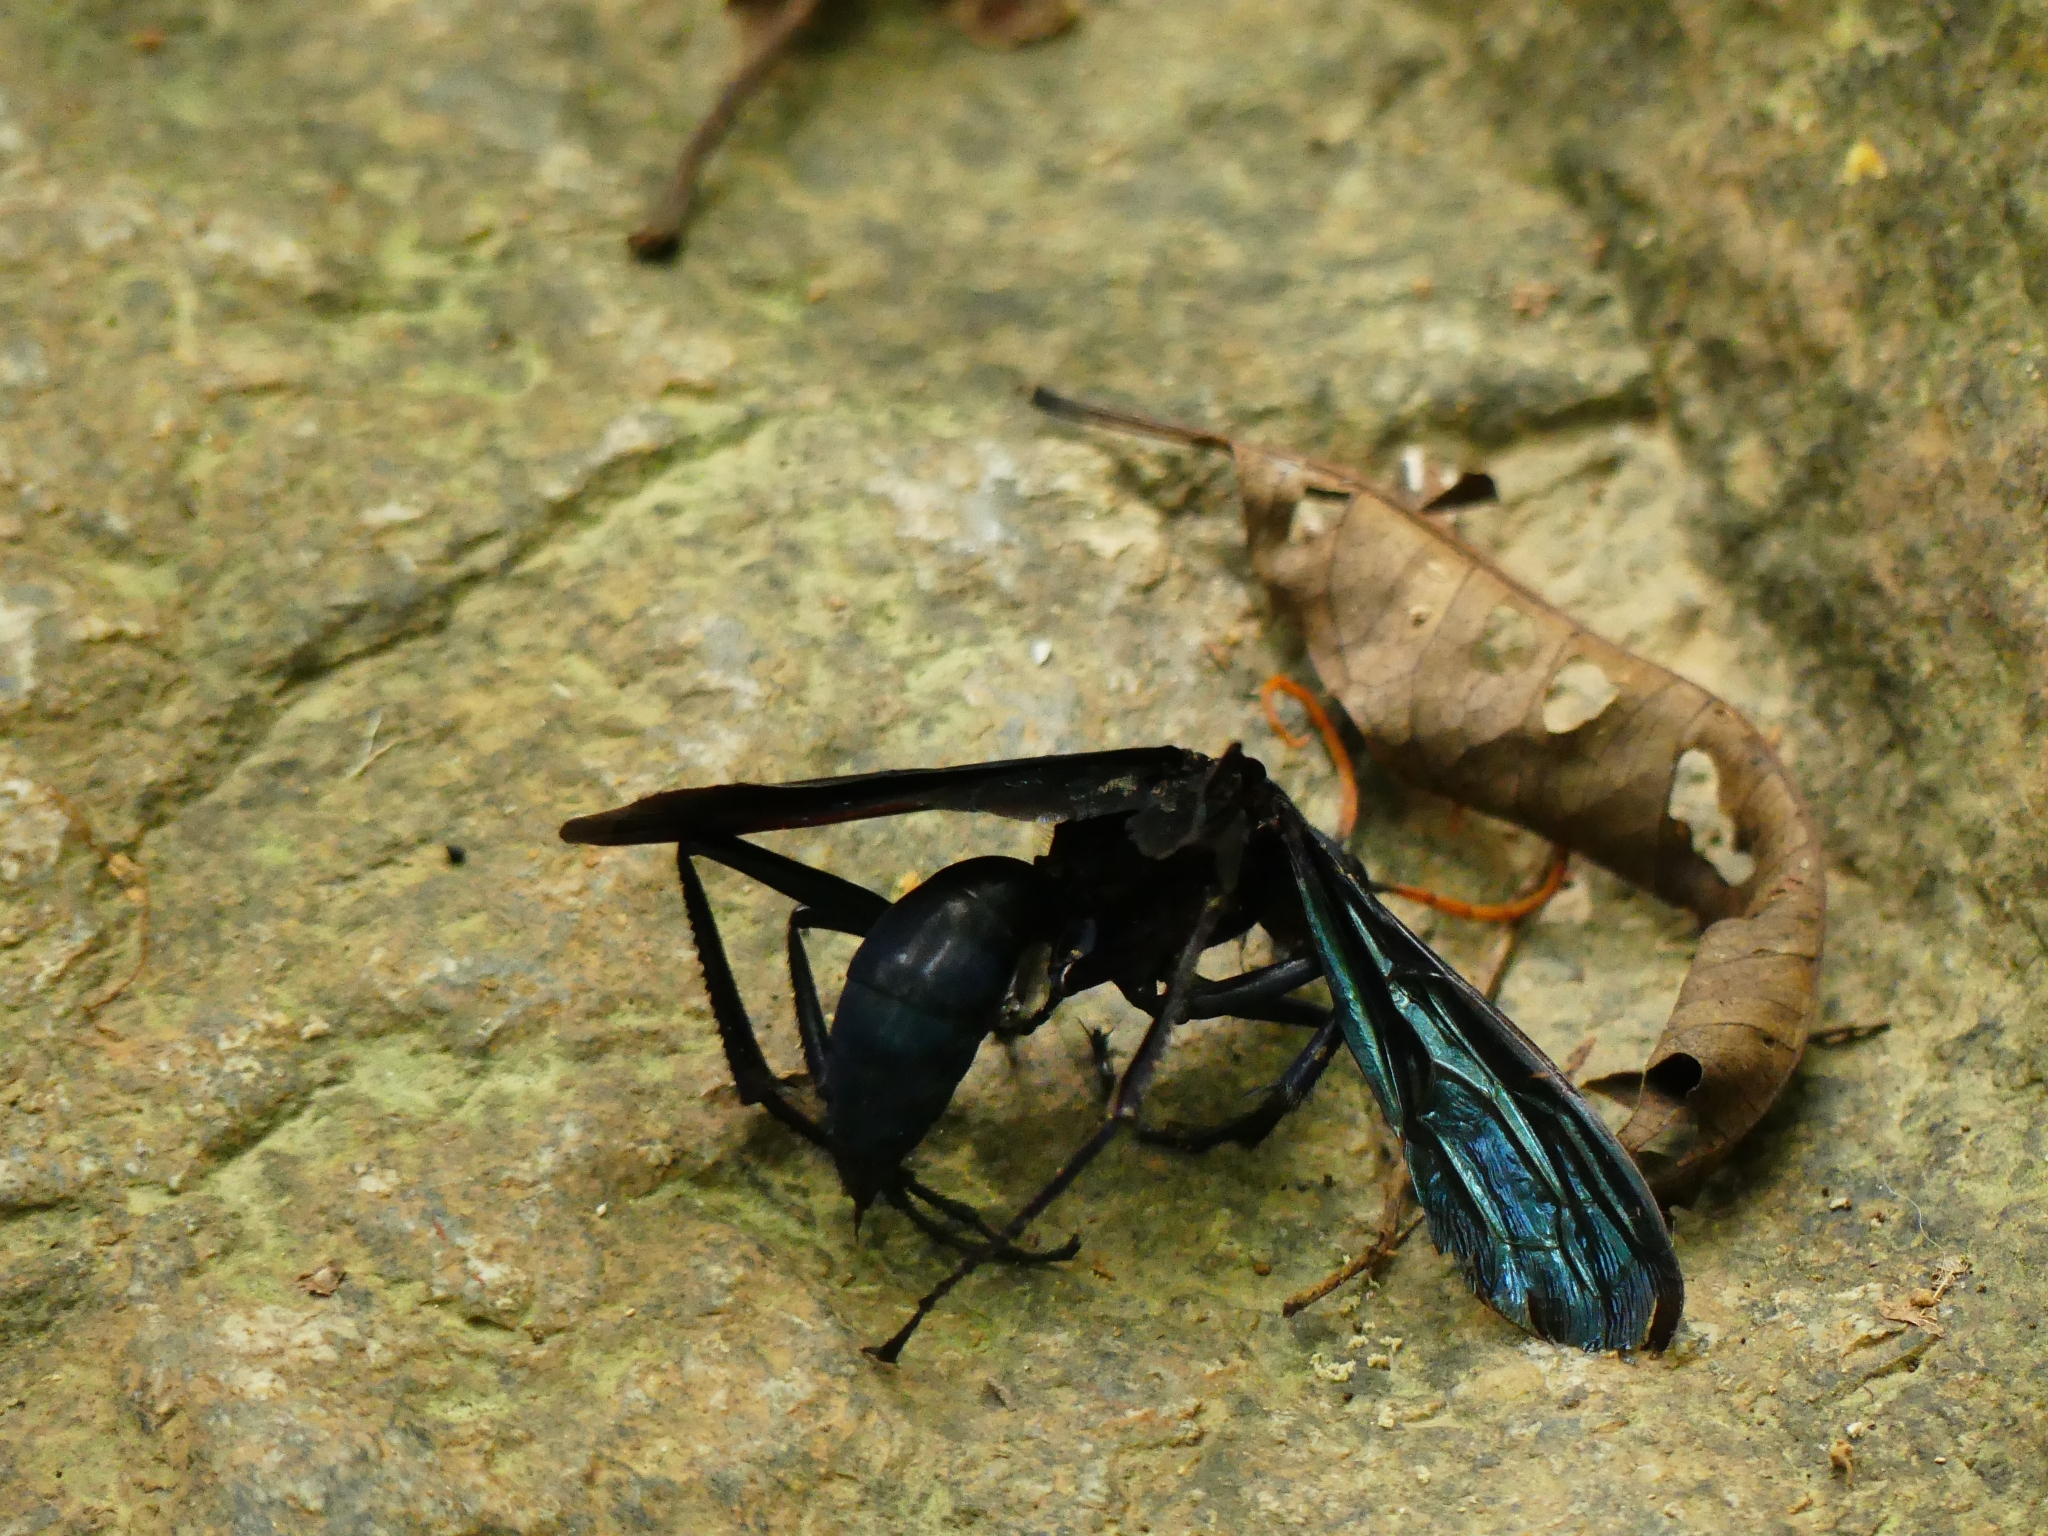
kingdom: Animalia
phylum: Arthropoda
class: Insecta
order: Hymenoptera
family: Pompilidae
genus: Pepsis
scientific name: Pepsis
